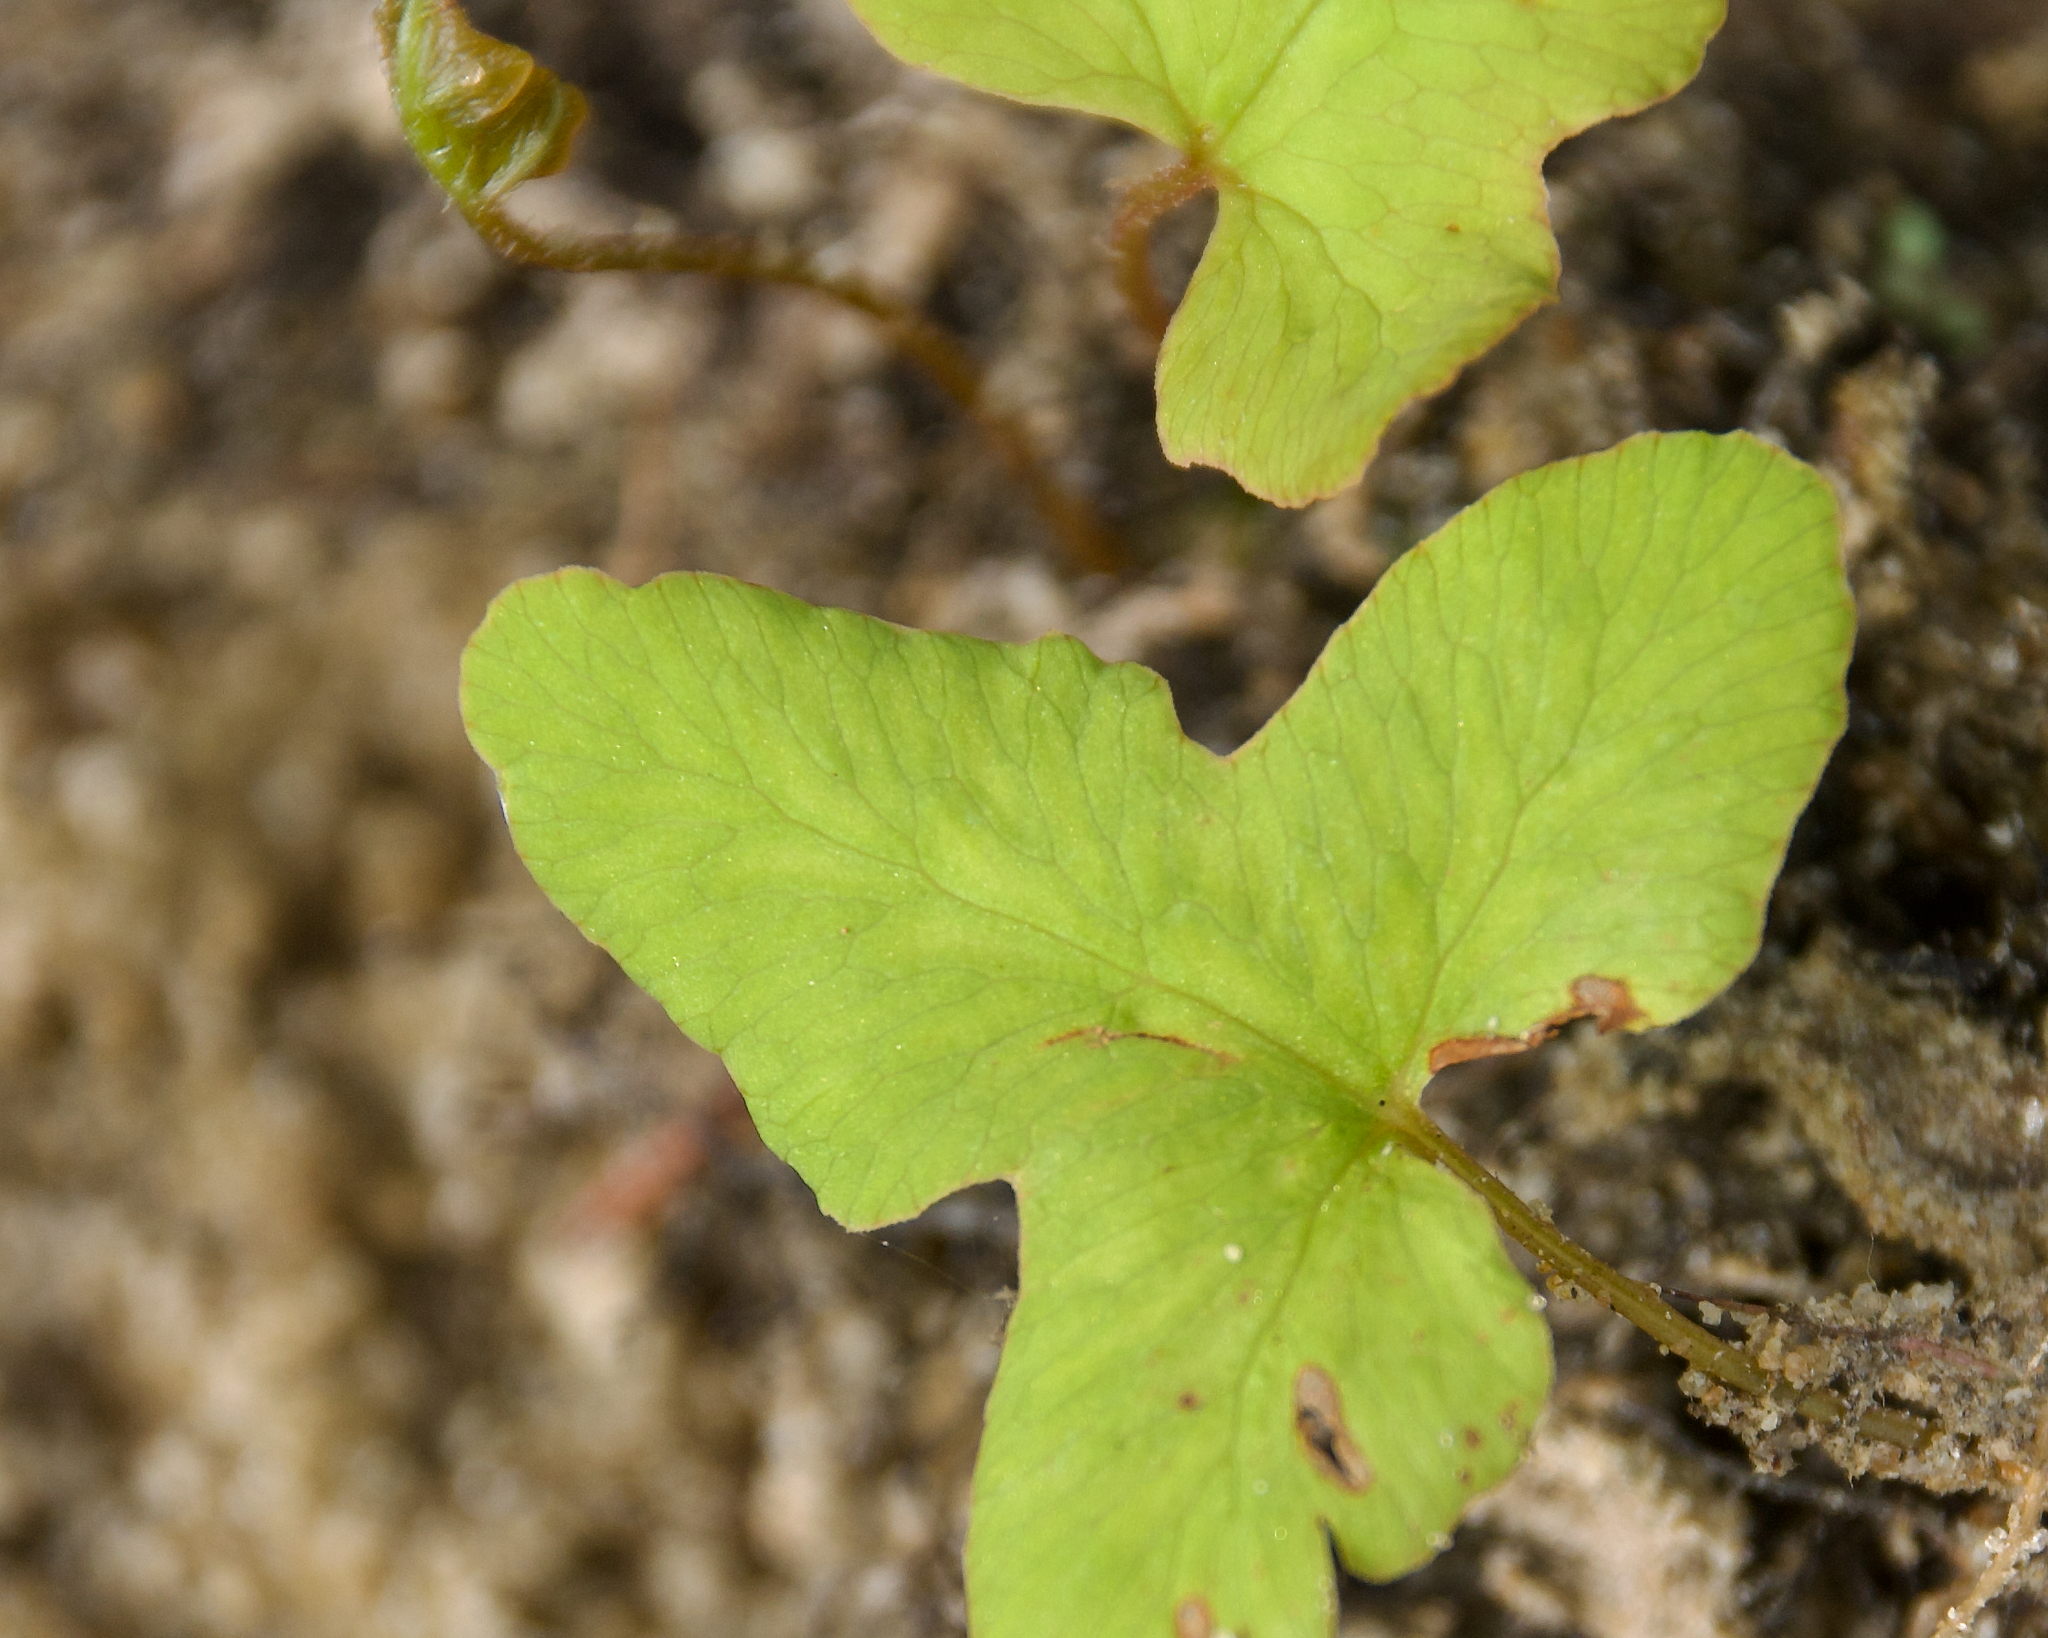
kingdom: Plantae
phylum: Tracheophyta
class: Polypodiopsida
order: Polypodiales
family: Onocleaceae
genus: Onoclea
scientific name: Onoclea sensibilis
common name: Sensitive fern
